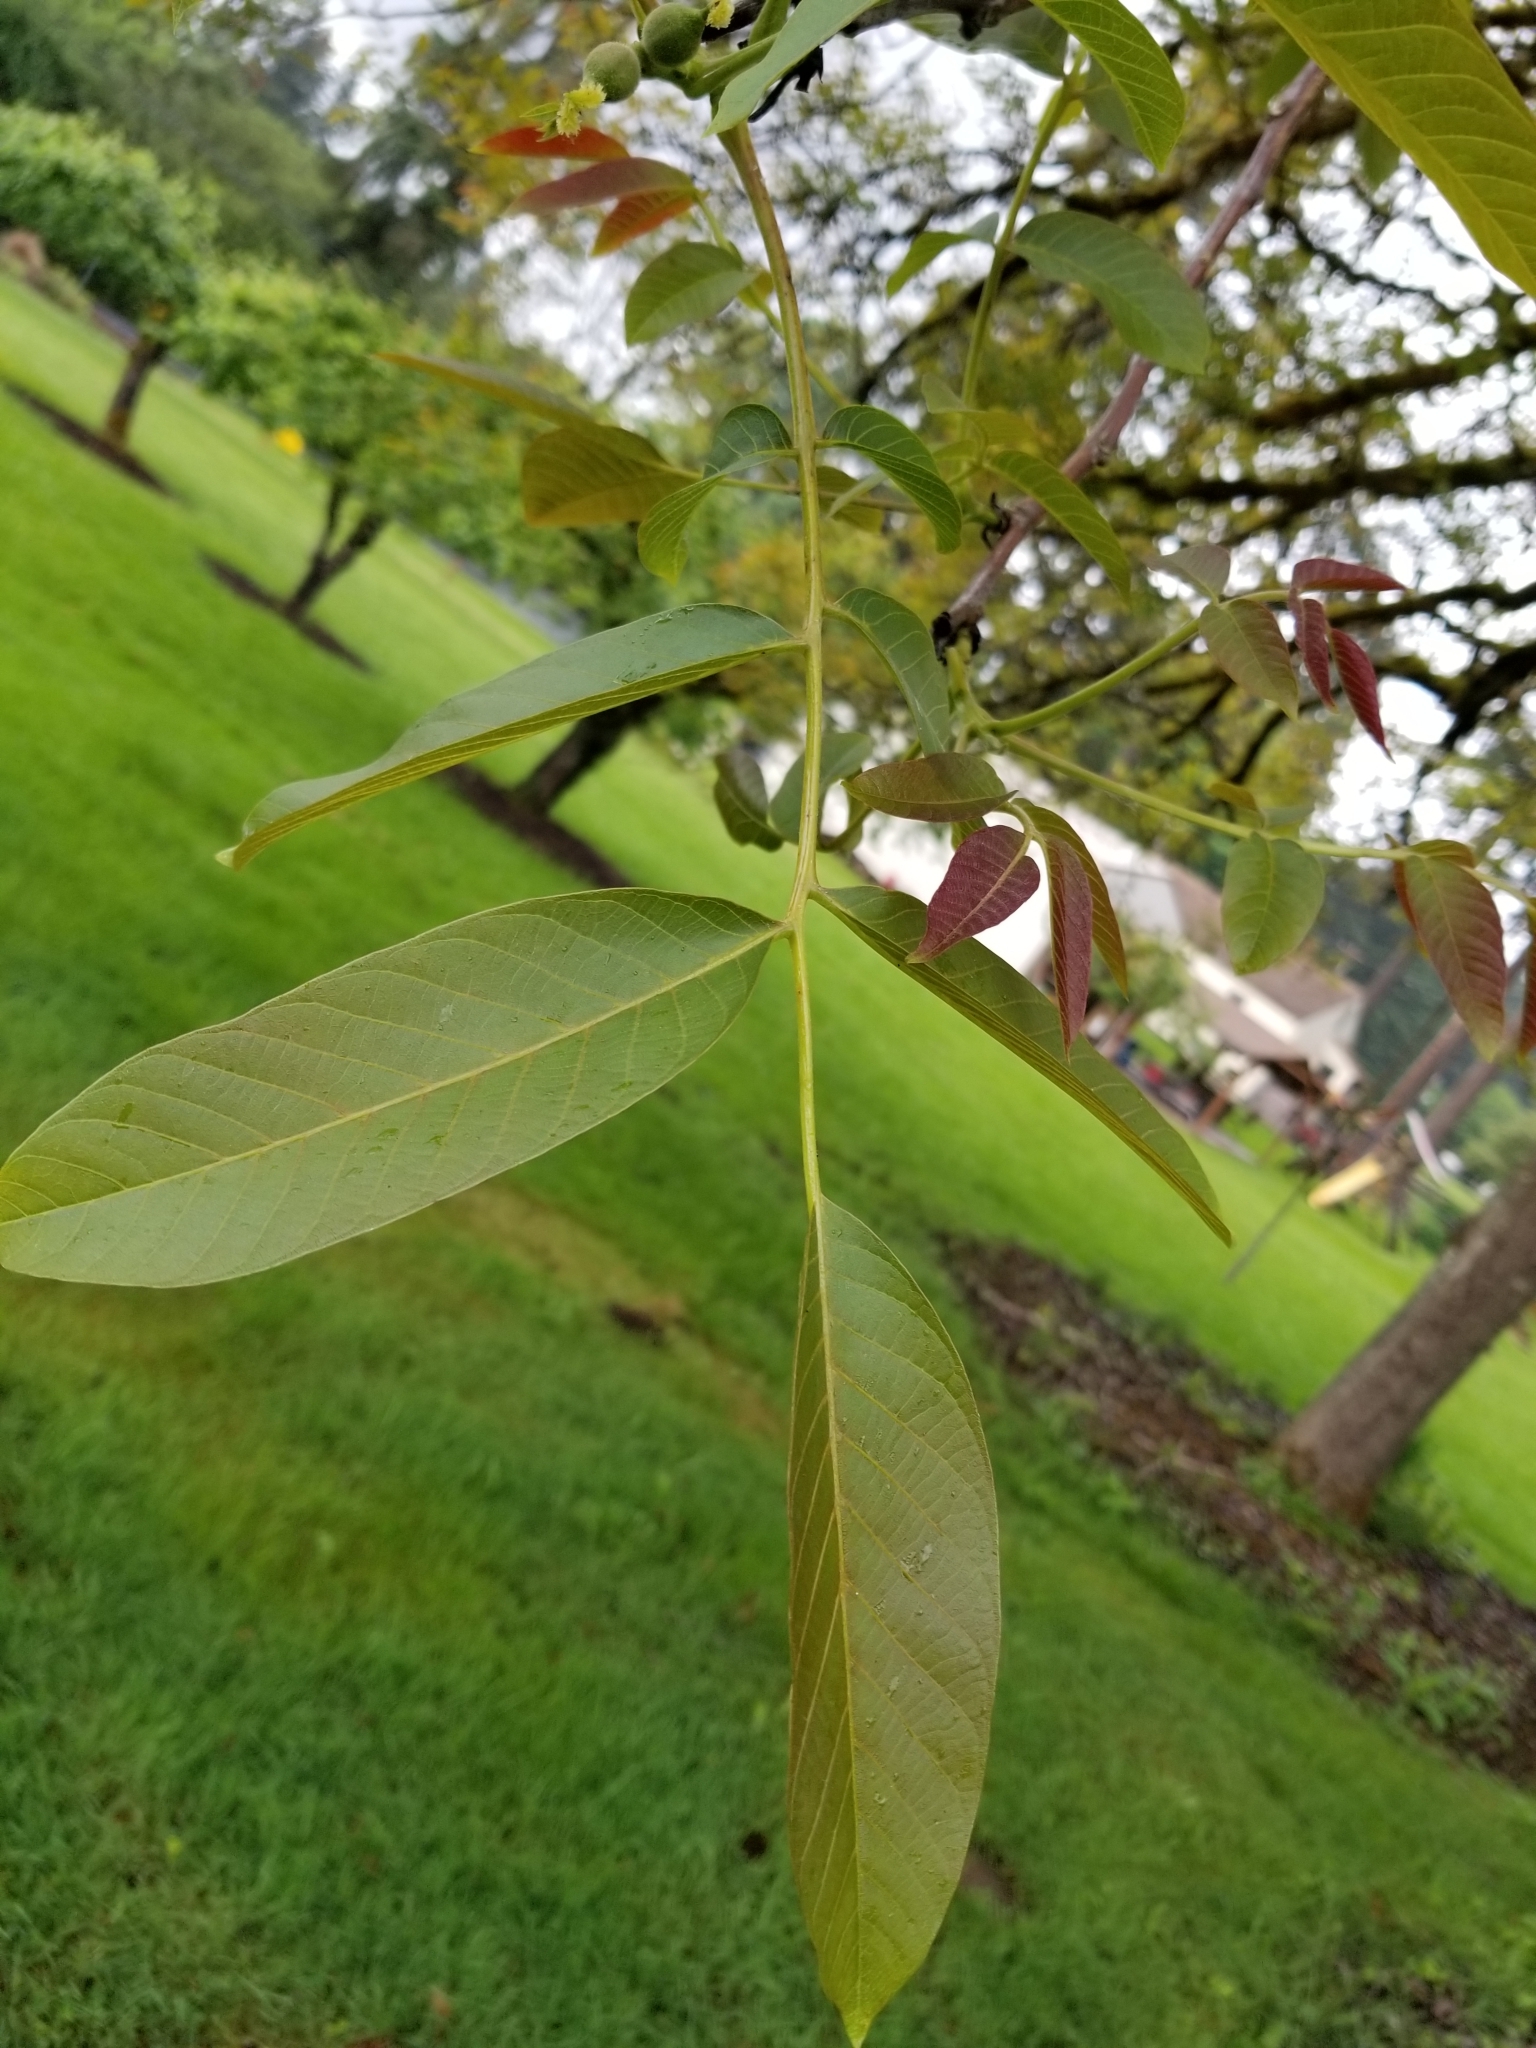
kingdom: Plantae
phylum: Tracheophyta
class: Magnoliopsida
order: Fagales
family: Juglandaceae
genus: Juglans
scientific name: Juglans regia
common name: Walnut
